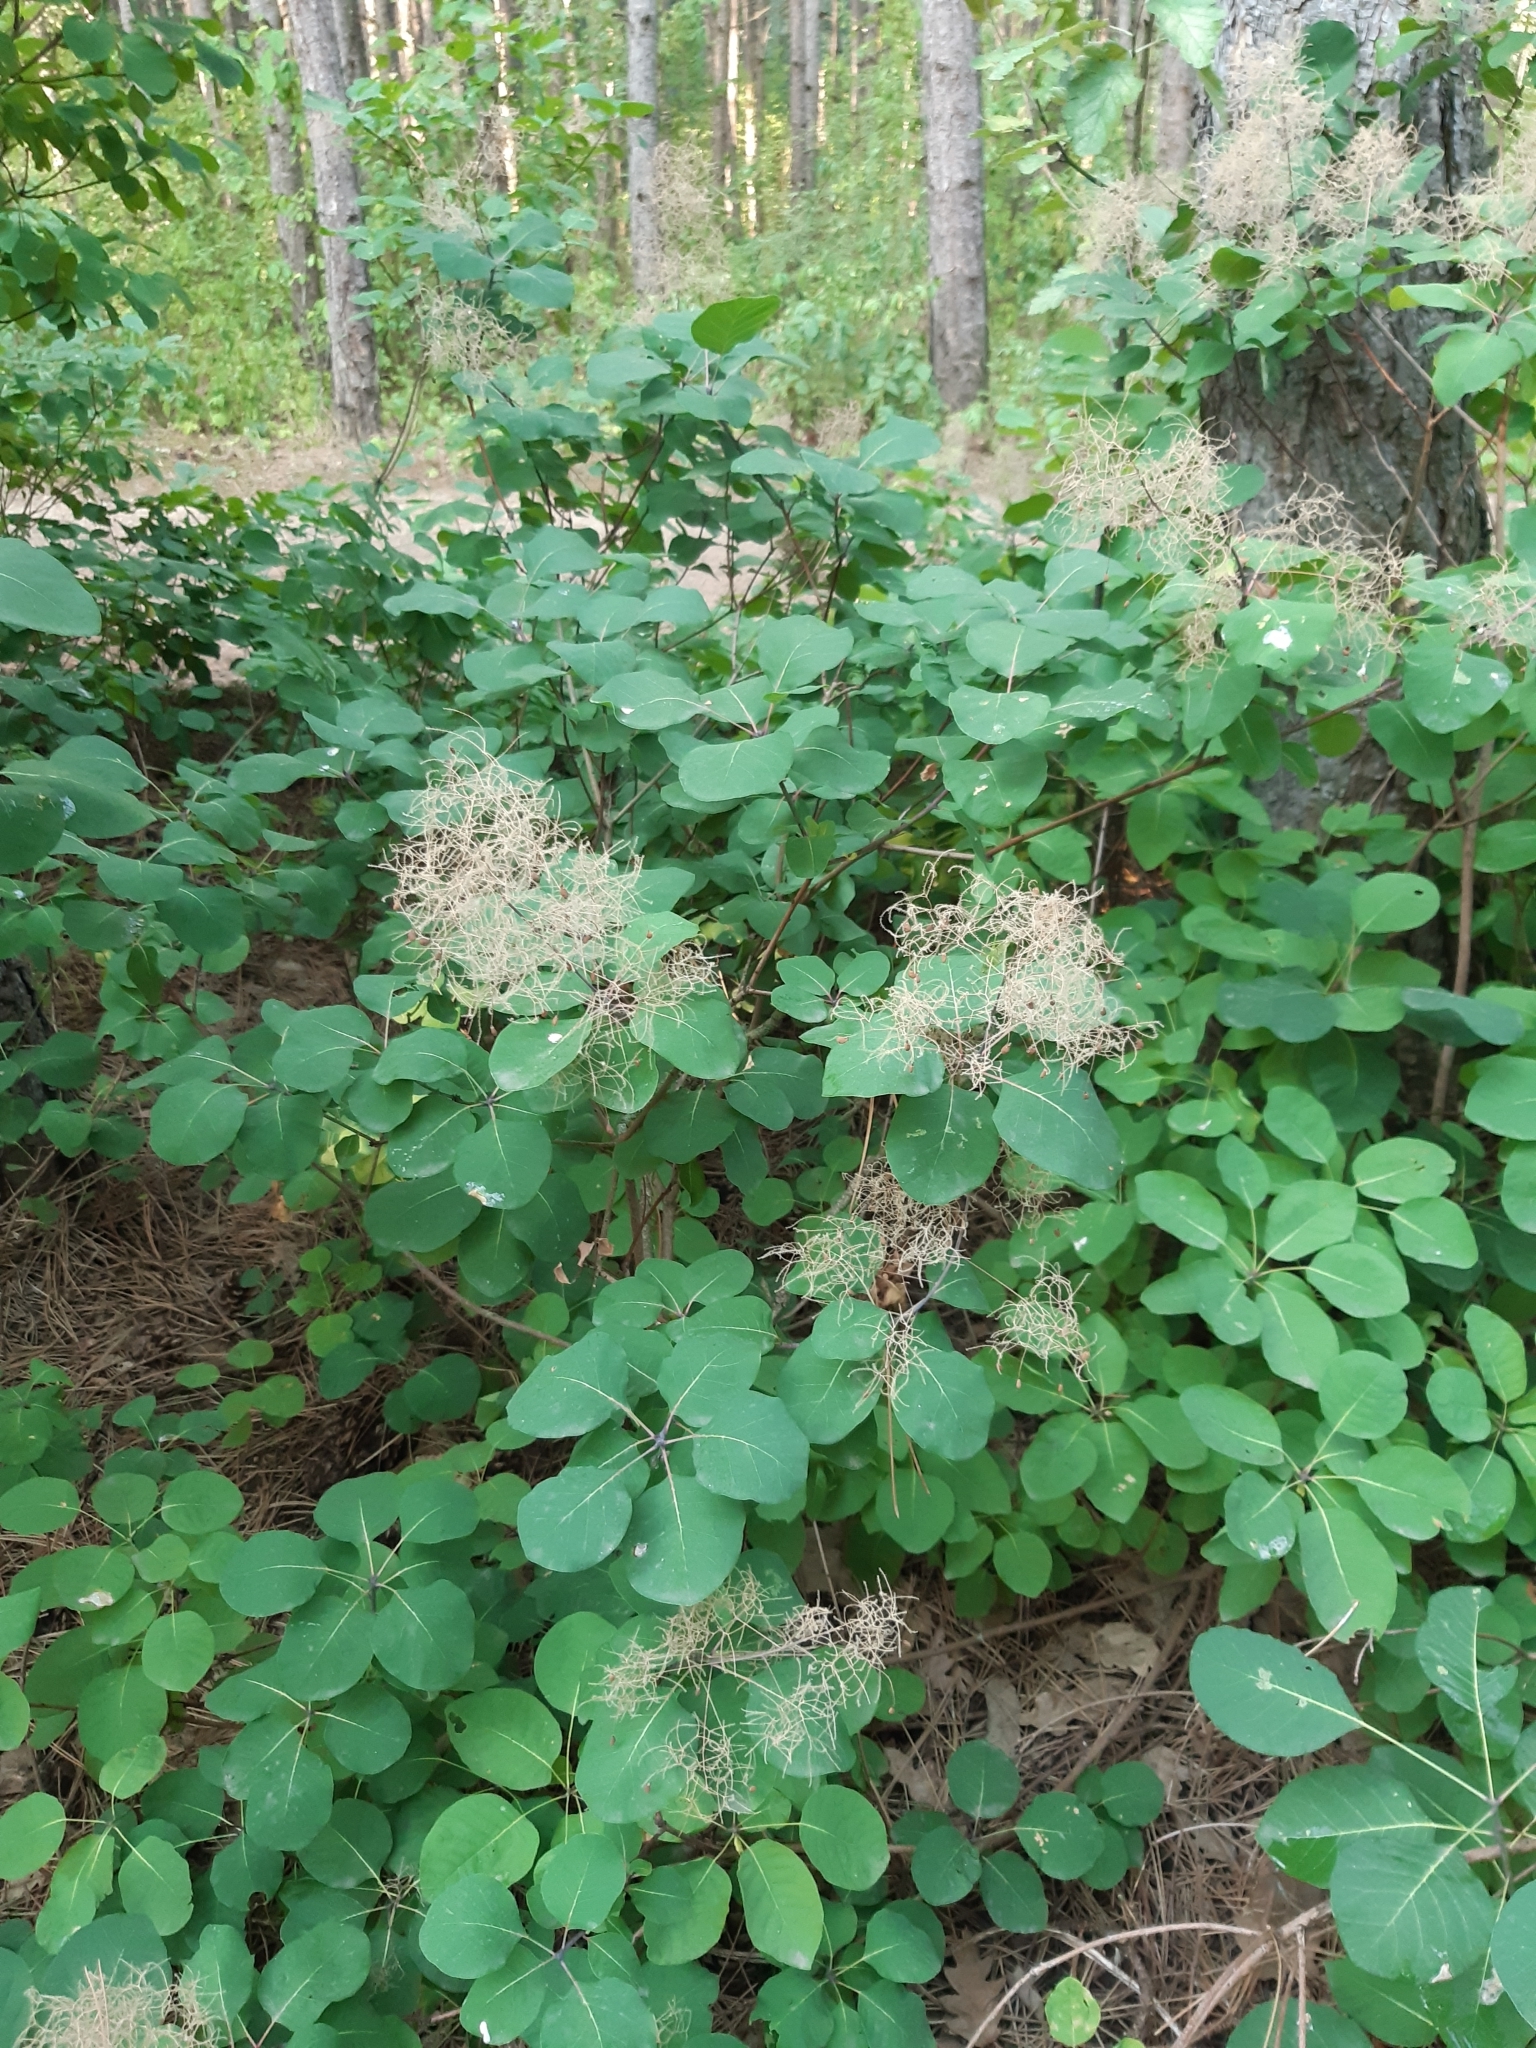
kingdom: Plantae
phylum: Tracheophyta
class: Magnoliopsida
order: Sapindales
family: Anacardiaceae
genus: Cotinus
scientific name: Cotinus coggygria
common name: Smoke-tree
